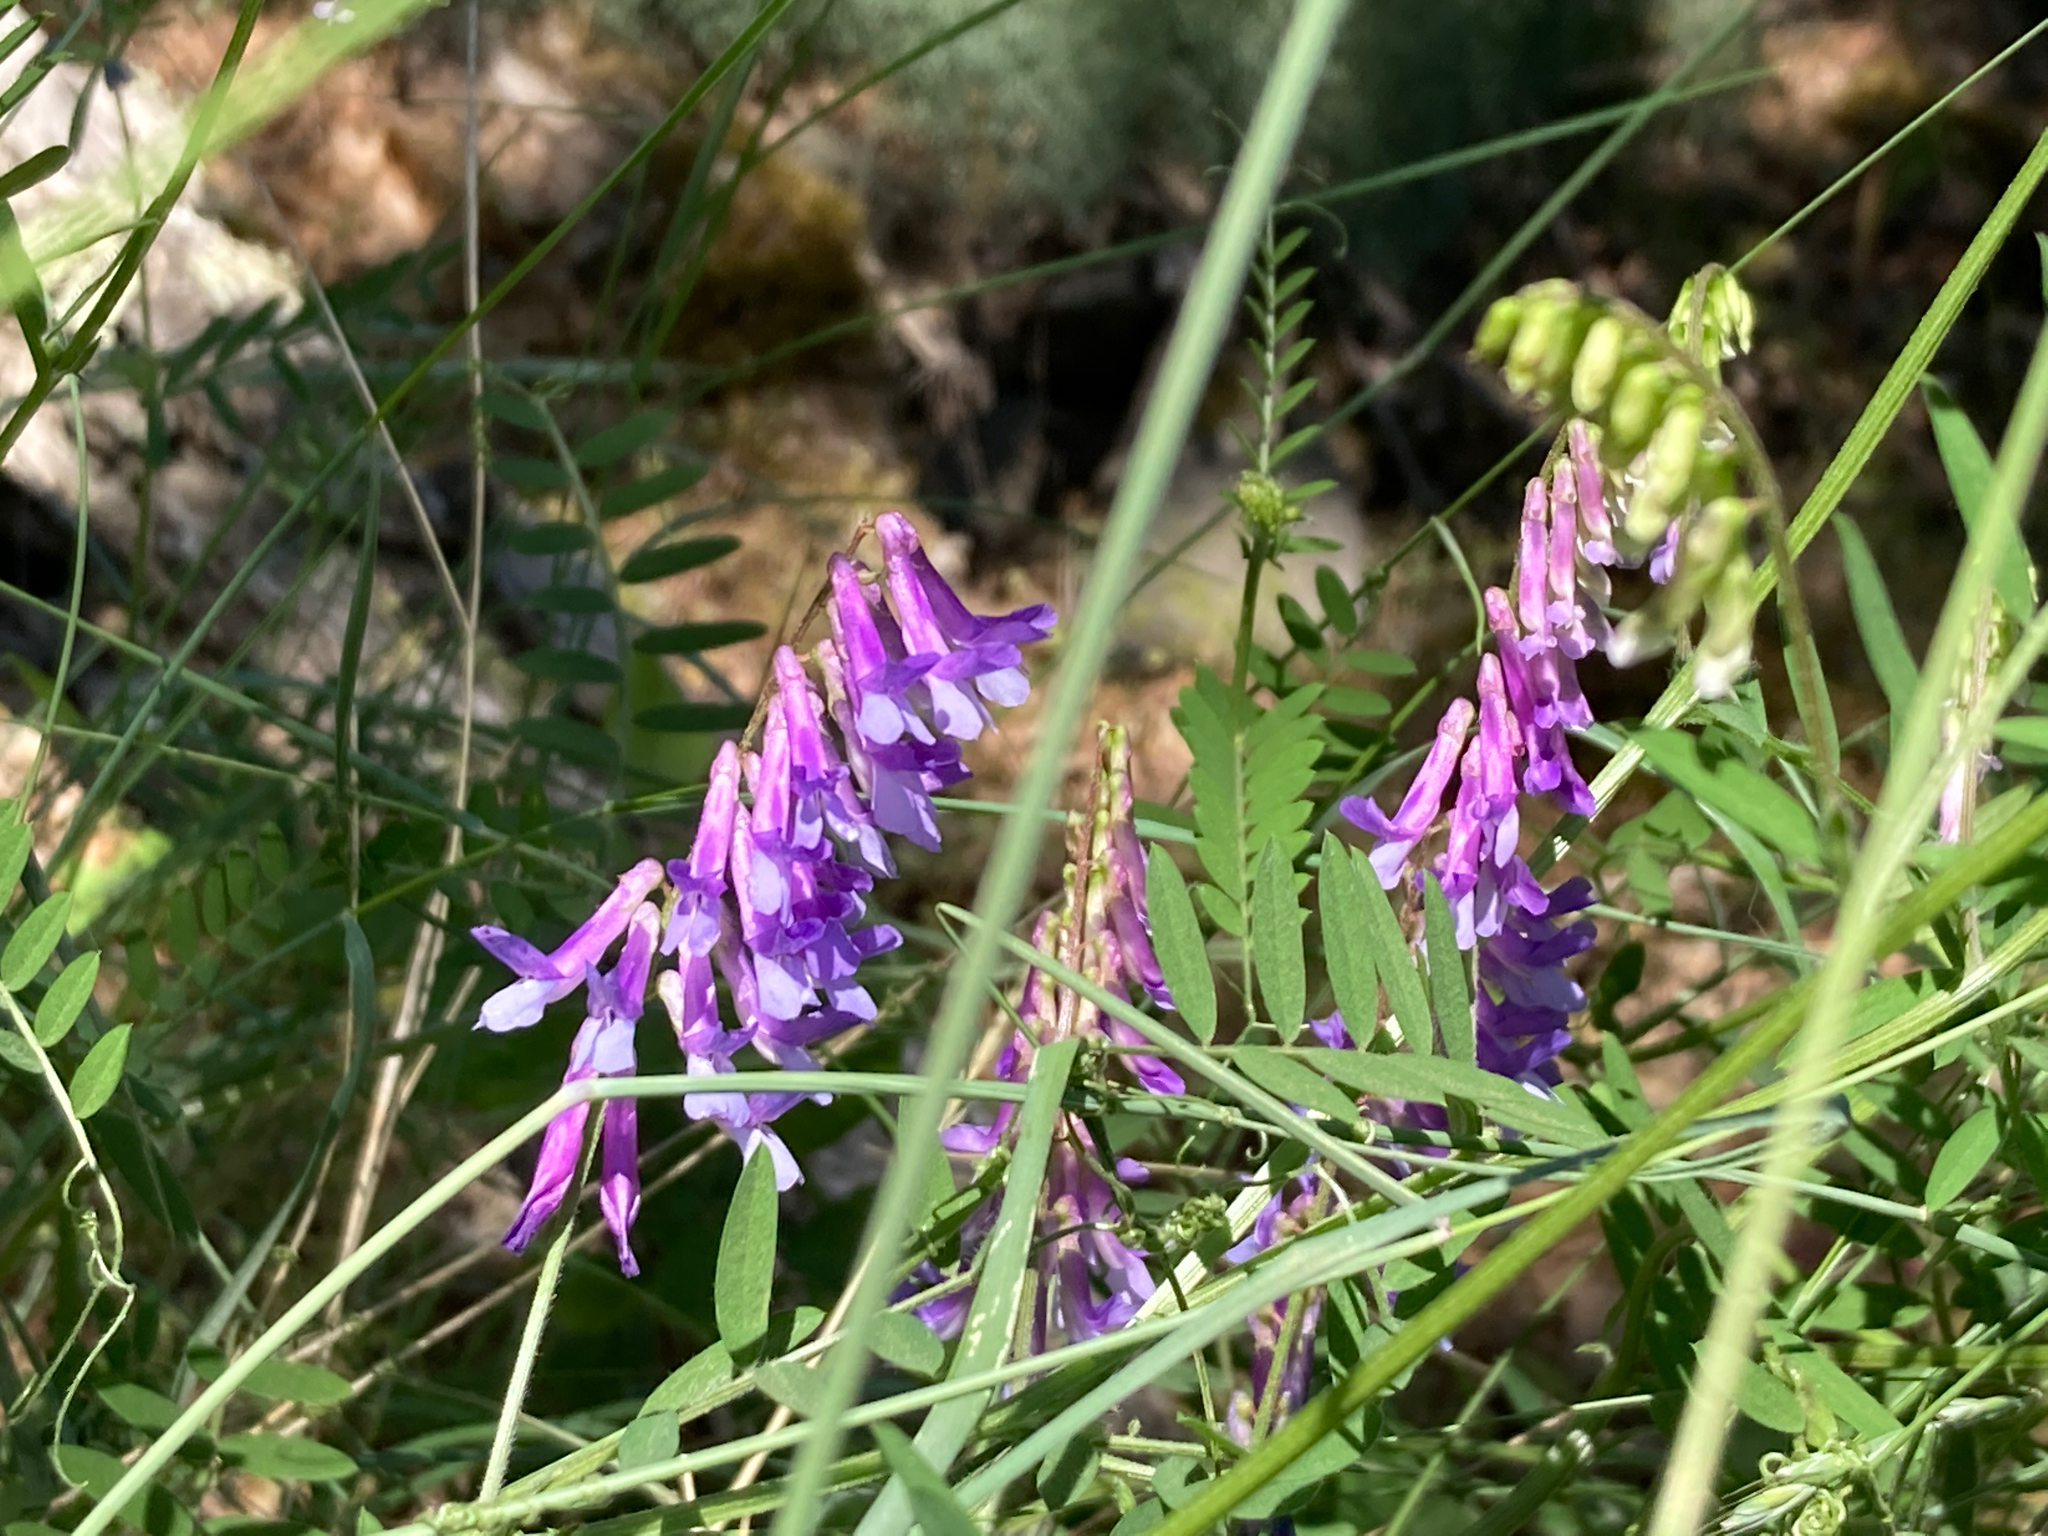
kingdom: Plantae
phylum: Tracheophyta
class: Magnoliopsida
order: Fabales
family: Fabaceae
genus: Vicia
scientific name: Vicia villosa
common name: Fodder vetch
